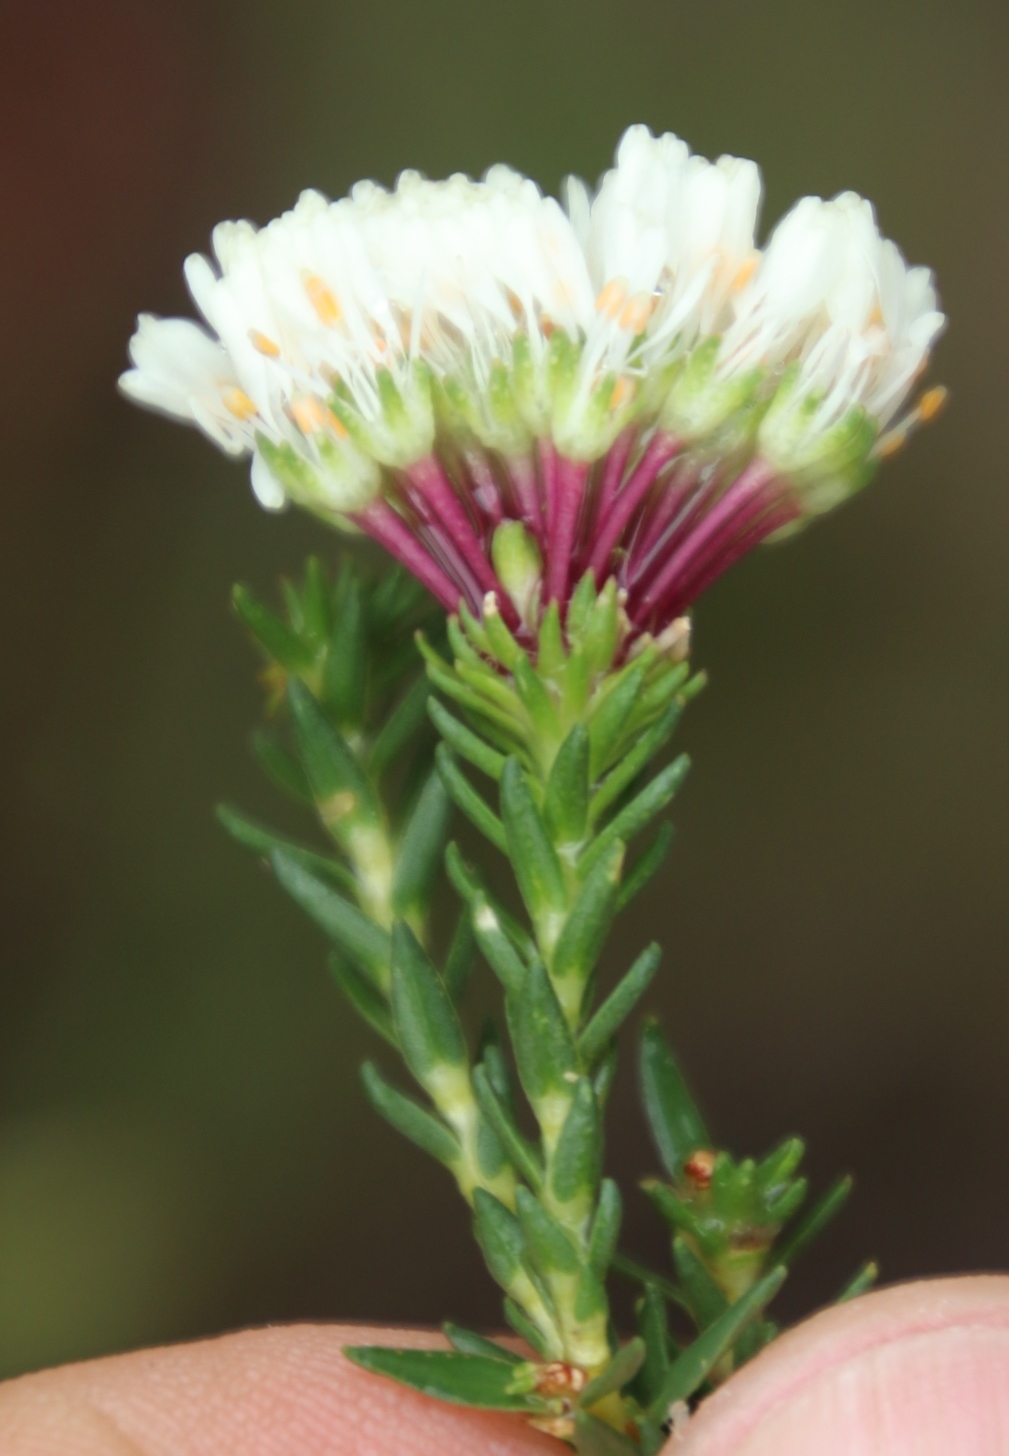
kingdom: Plantae
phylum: Tracheophyta
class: Magnoliopsida
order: Sapindales
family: Rutaceae
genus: Agathosma
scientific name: Agathosma bifida
